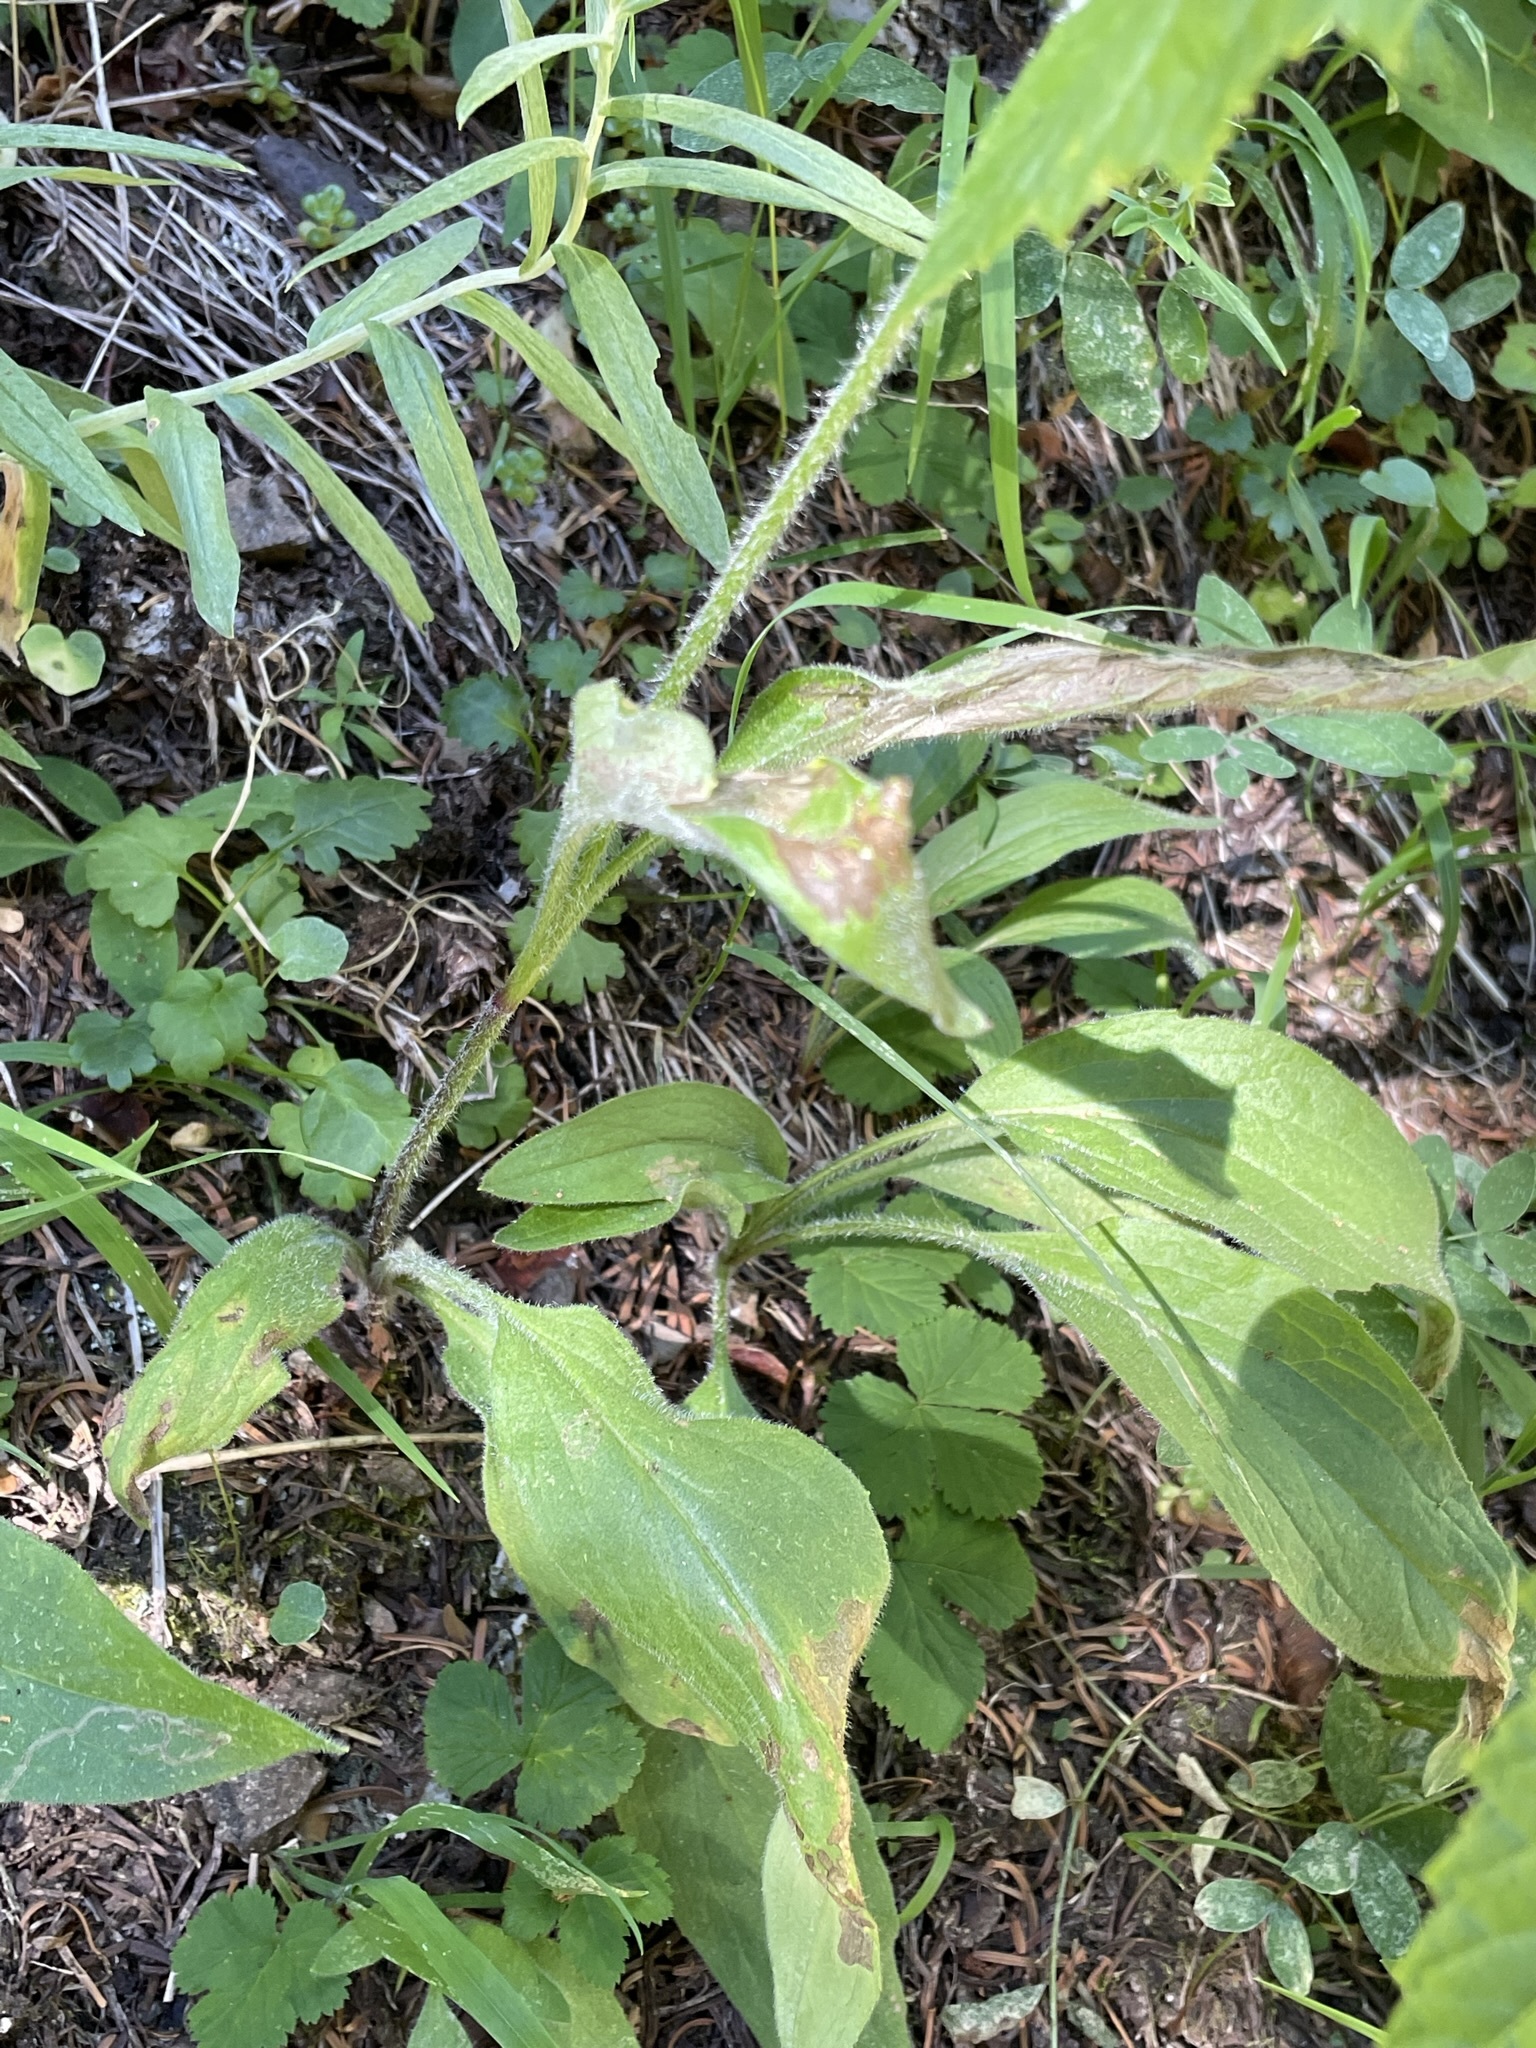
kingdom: Plantae
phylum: Tracheophyta
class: Magnoliopsida
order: Asterales
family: Asteraceae
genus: Arnica
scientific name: Arnica parryi
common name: Parry's arnica
